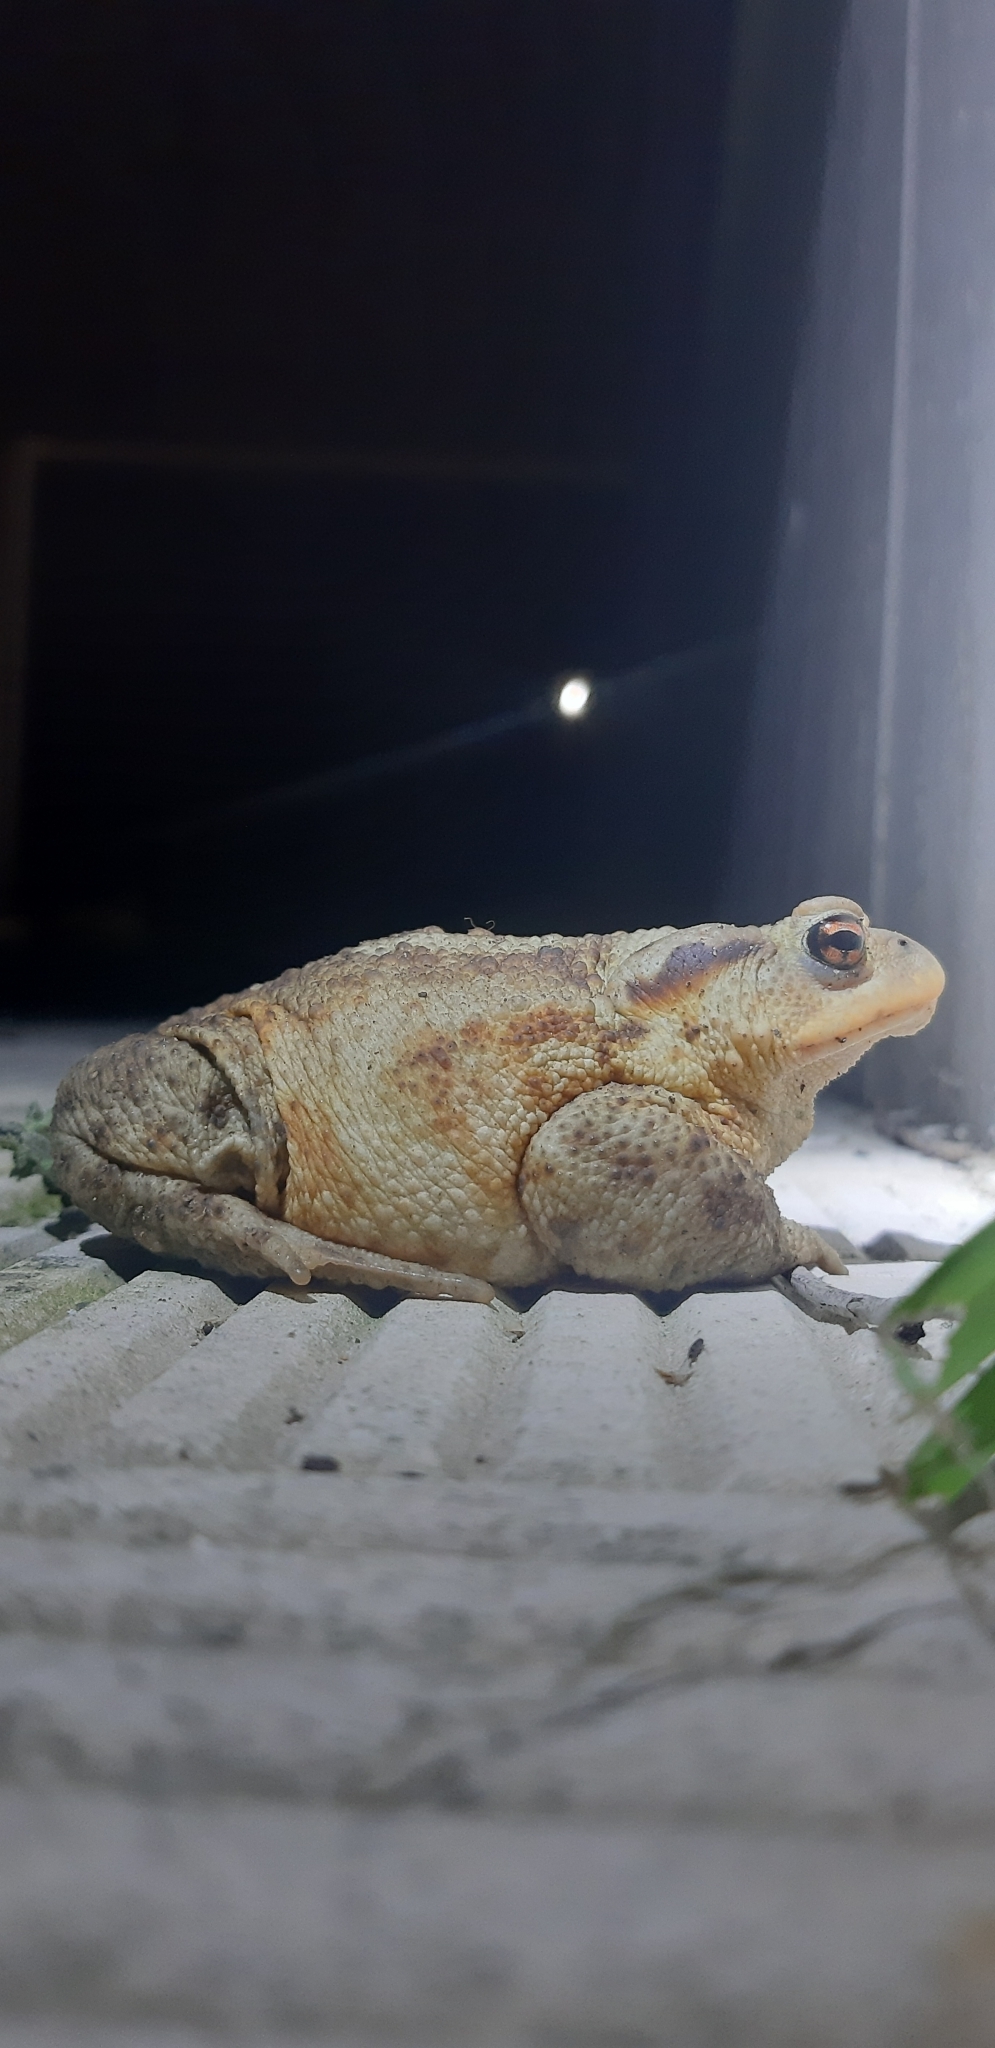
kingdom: Animalia
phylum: Chordata
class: Amphibia
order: Anura
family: Bufonidae
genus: Bufo
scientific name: Bufo bufo
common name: Common toad
